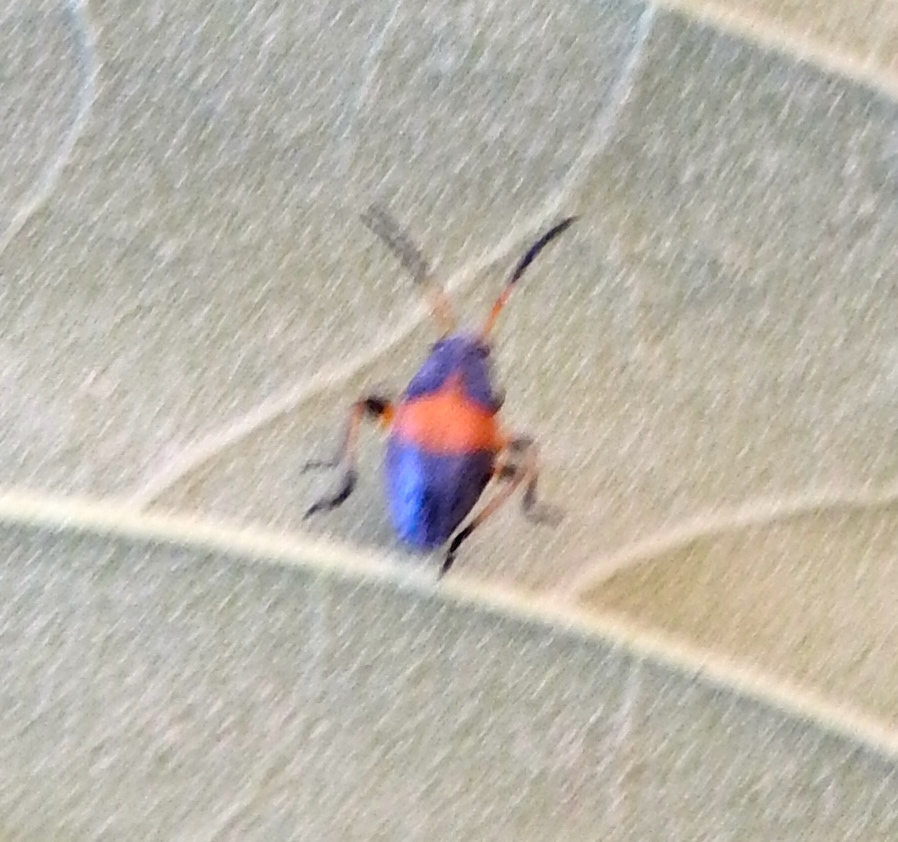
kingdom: Animalia
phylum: Arthropoda
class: Insecta
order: Hemiptera
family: Largidae
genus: Largus
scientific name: Largus
